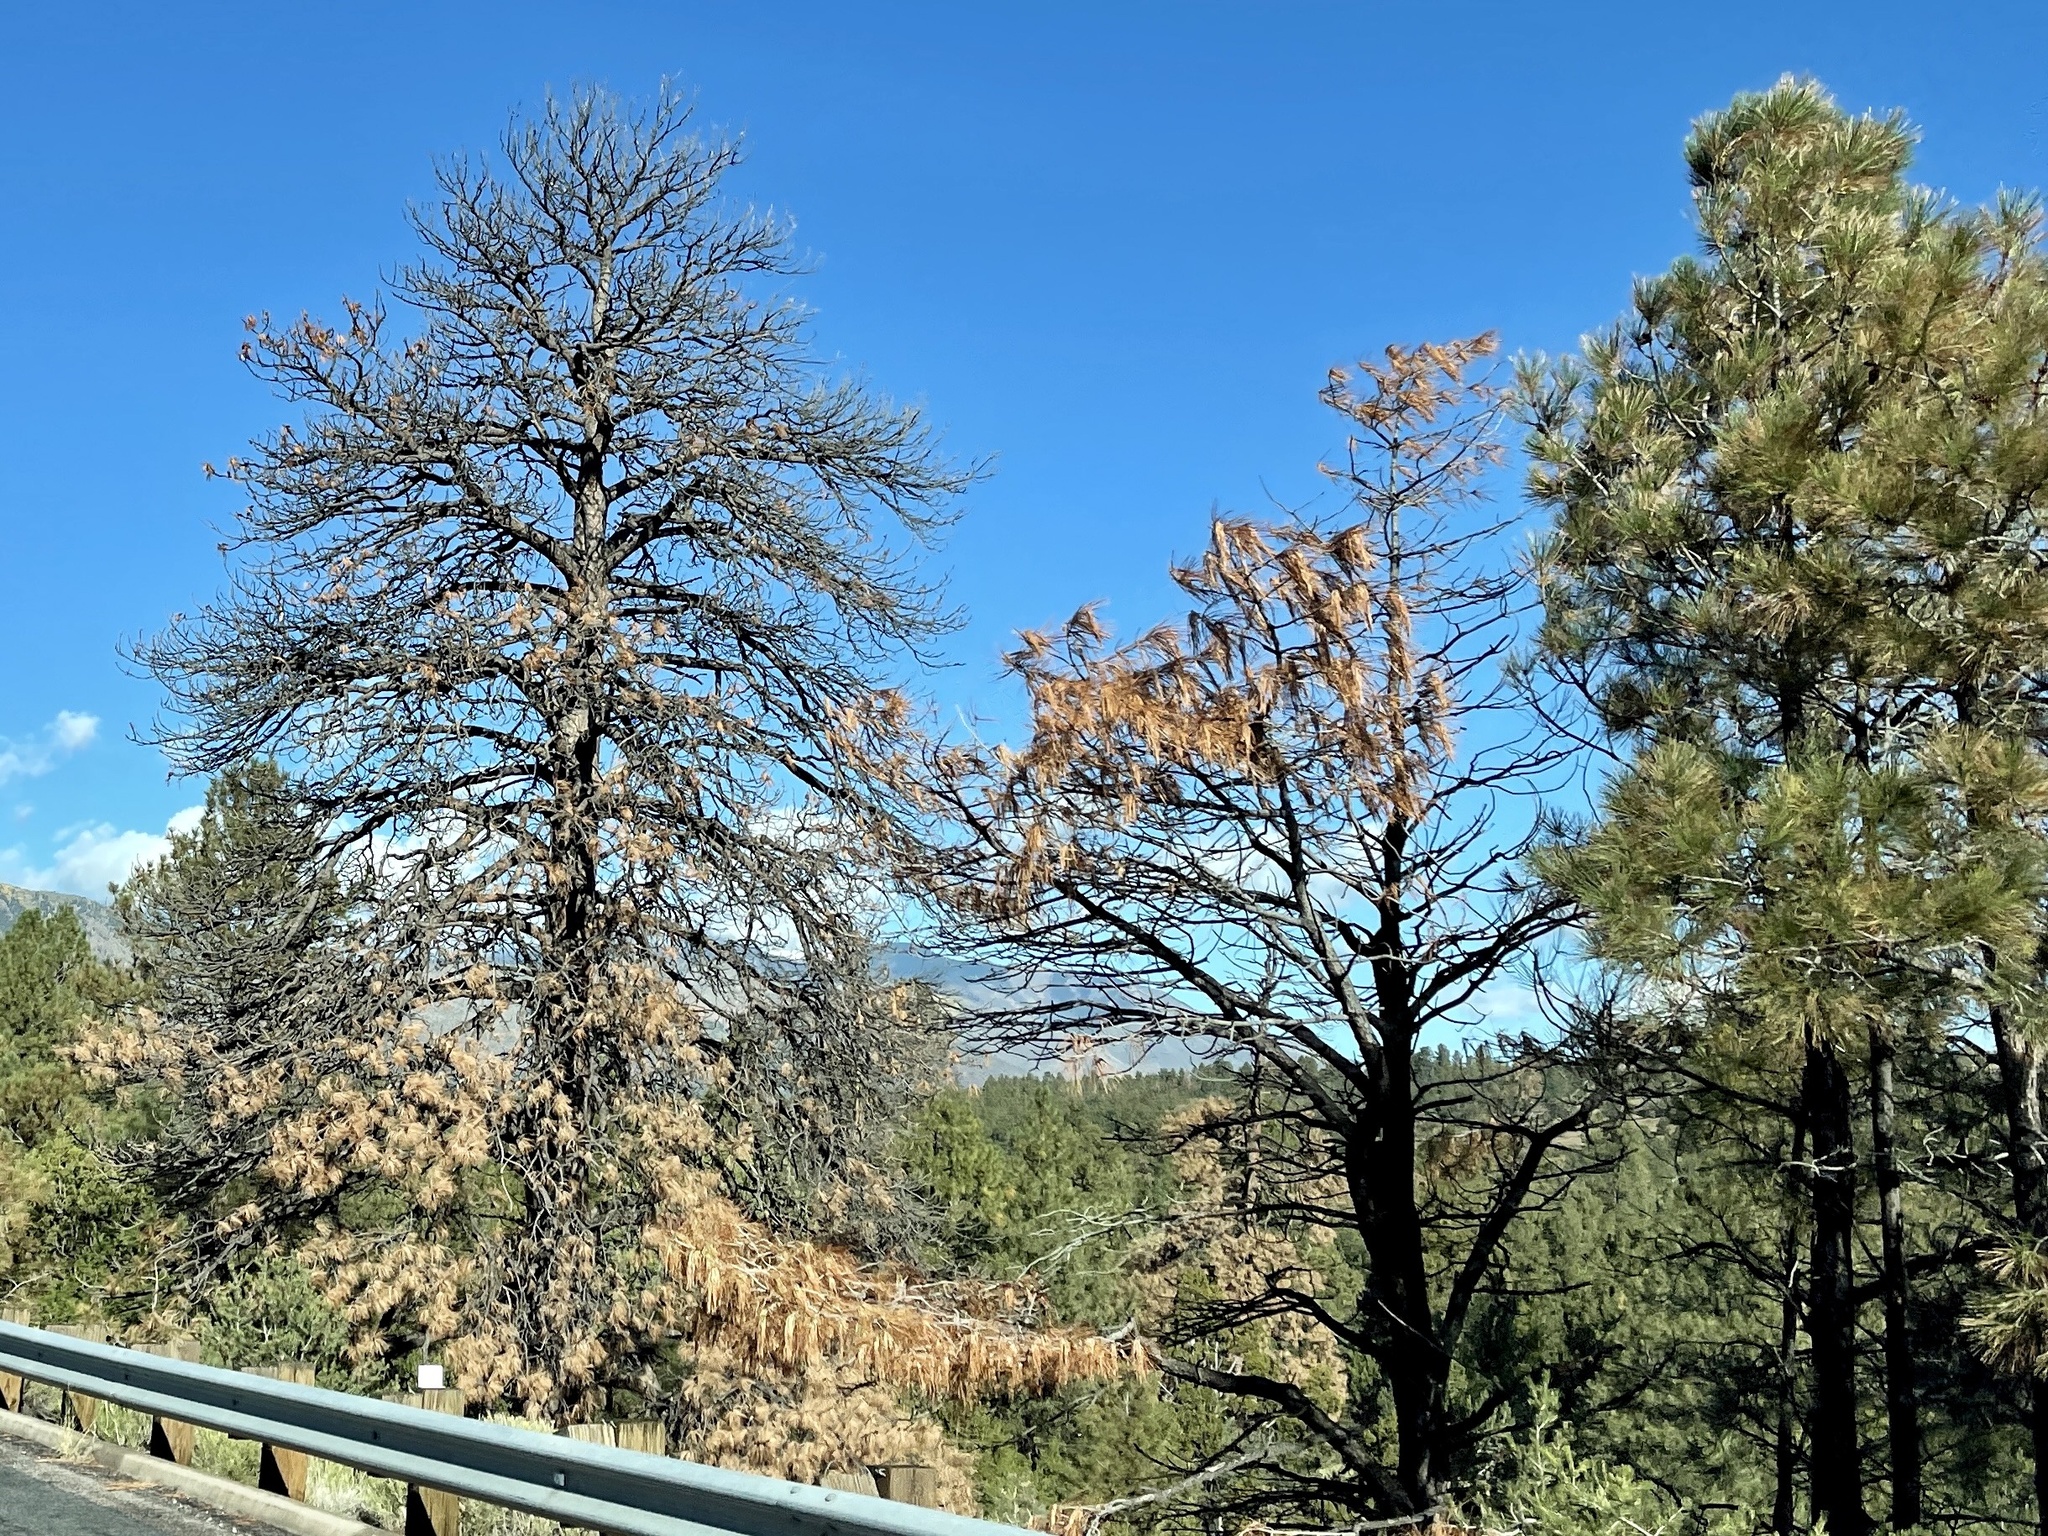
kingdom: Plantae
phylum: Tracheophyta
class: Pinopsida
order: Pinales
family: Pinaceae
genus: Pinus
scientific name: Pinus ponderosa
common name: Western yellow-pine
